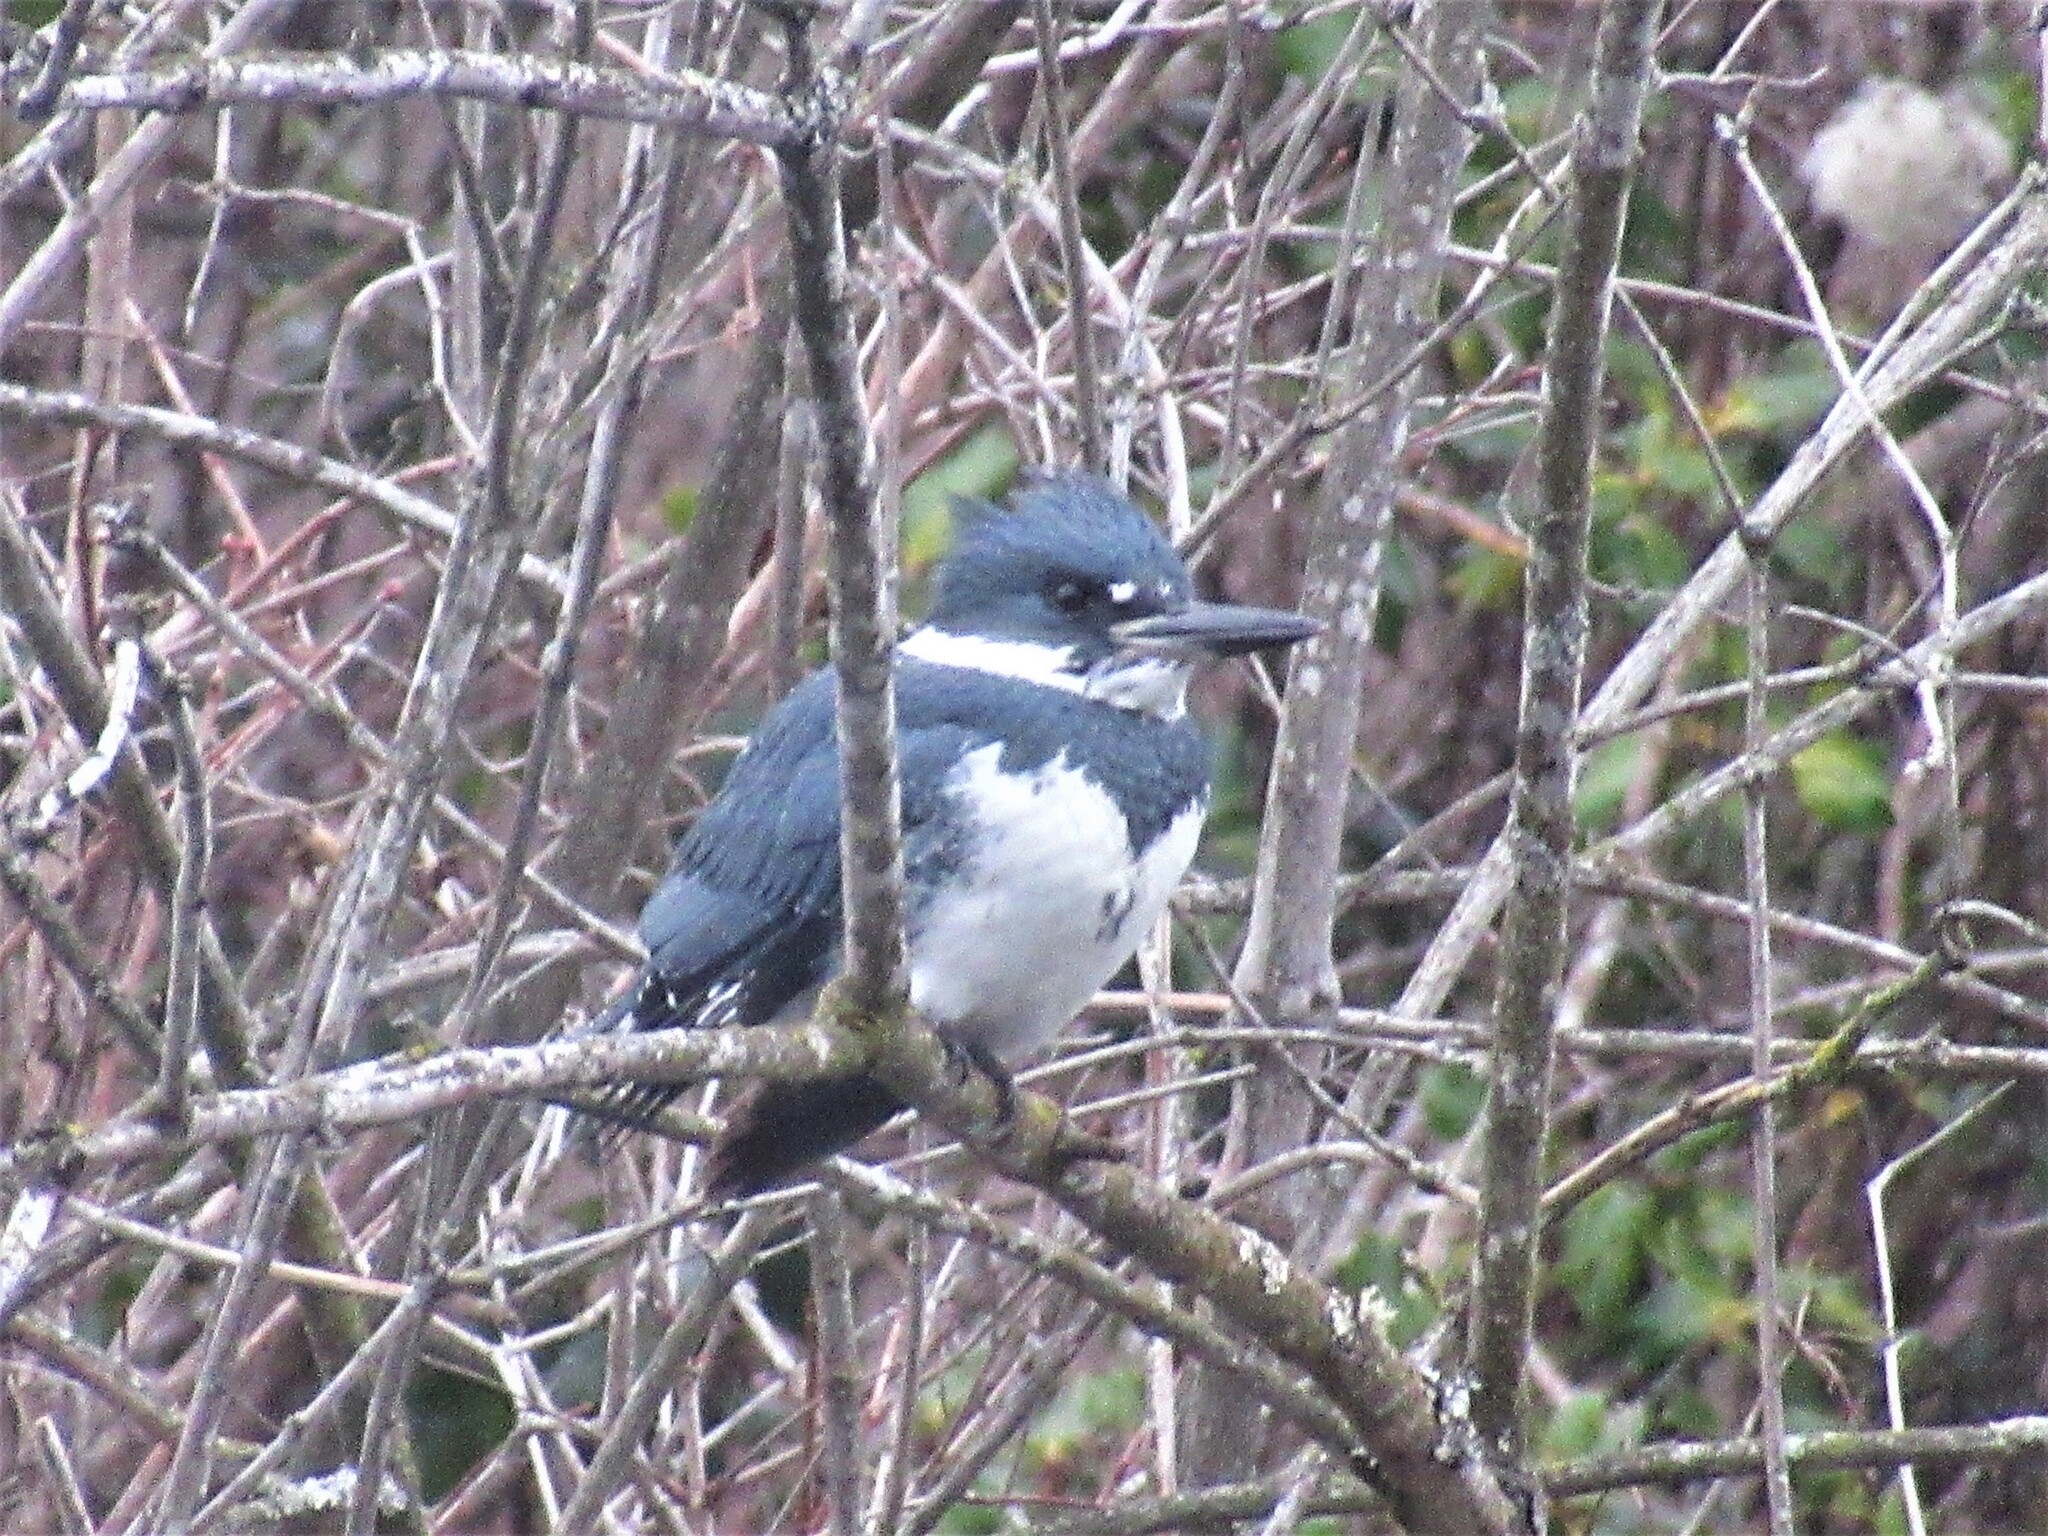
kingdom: Animalia
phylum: Chordata
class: Aves
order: Coraciiformes
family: Alcedinidae
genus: Megaceryle
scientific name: Megaceryle alcyon
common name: Belted kingfisher
